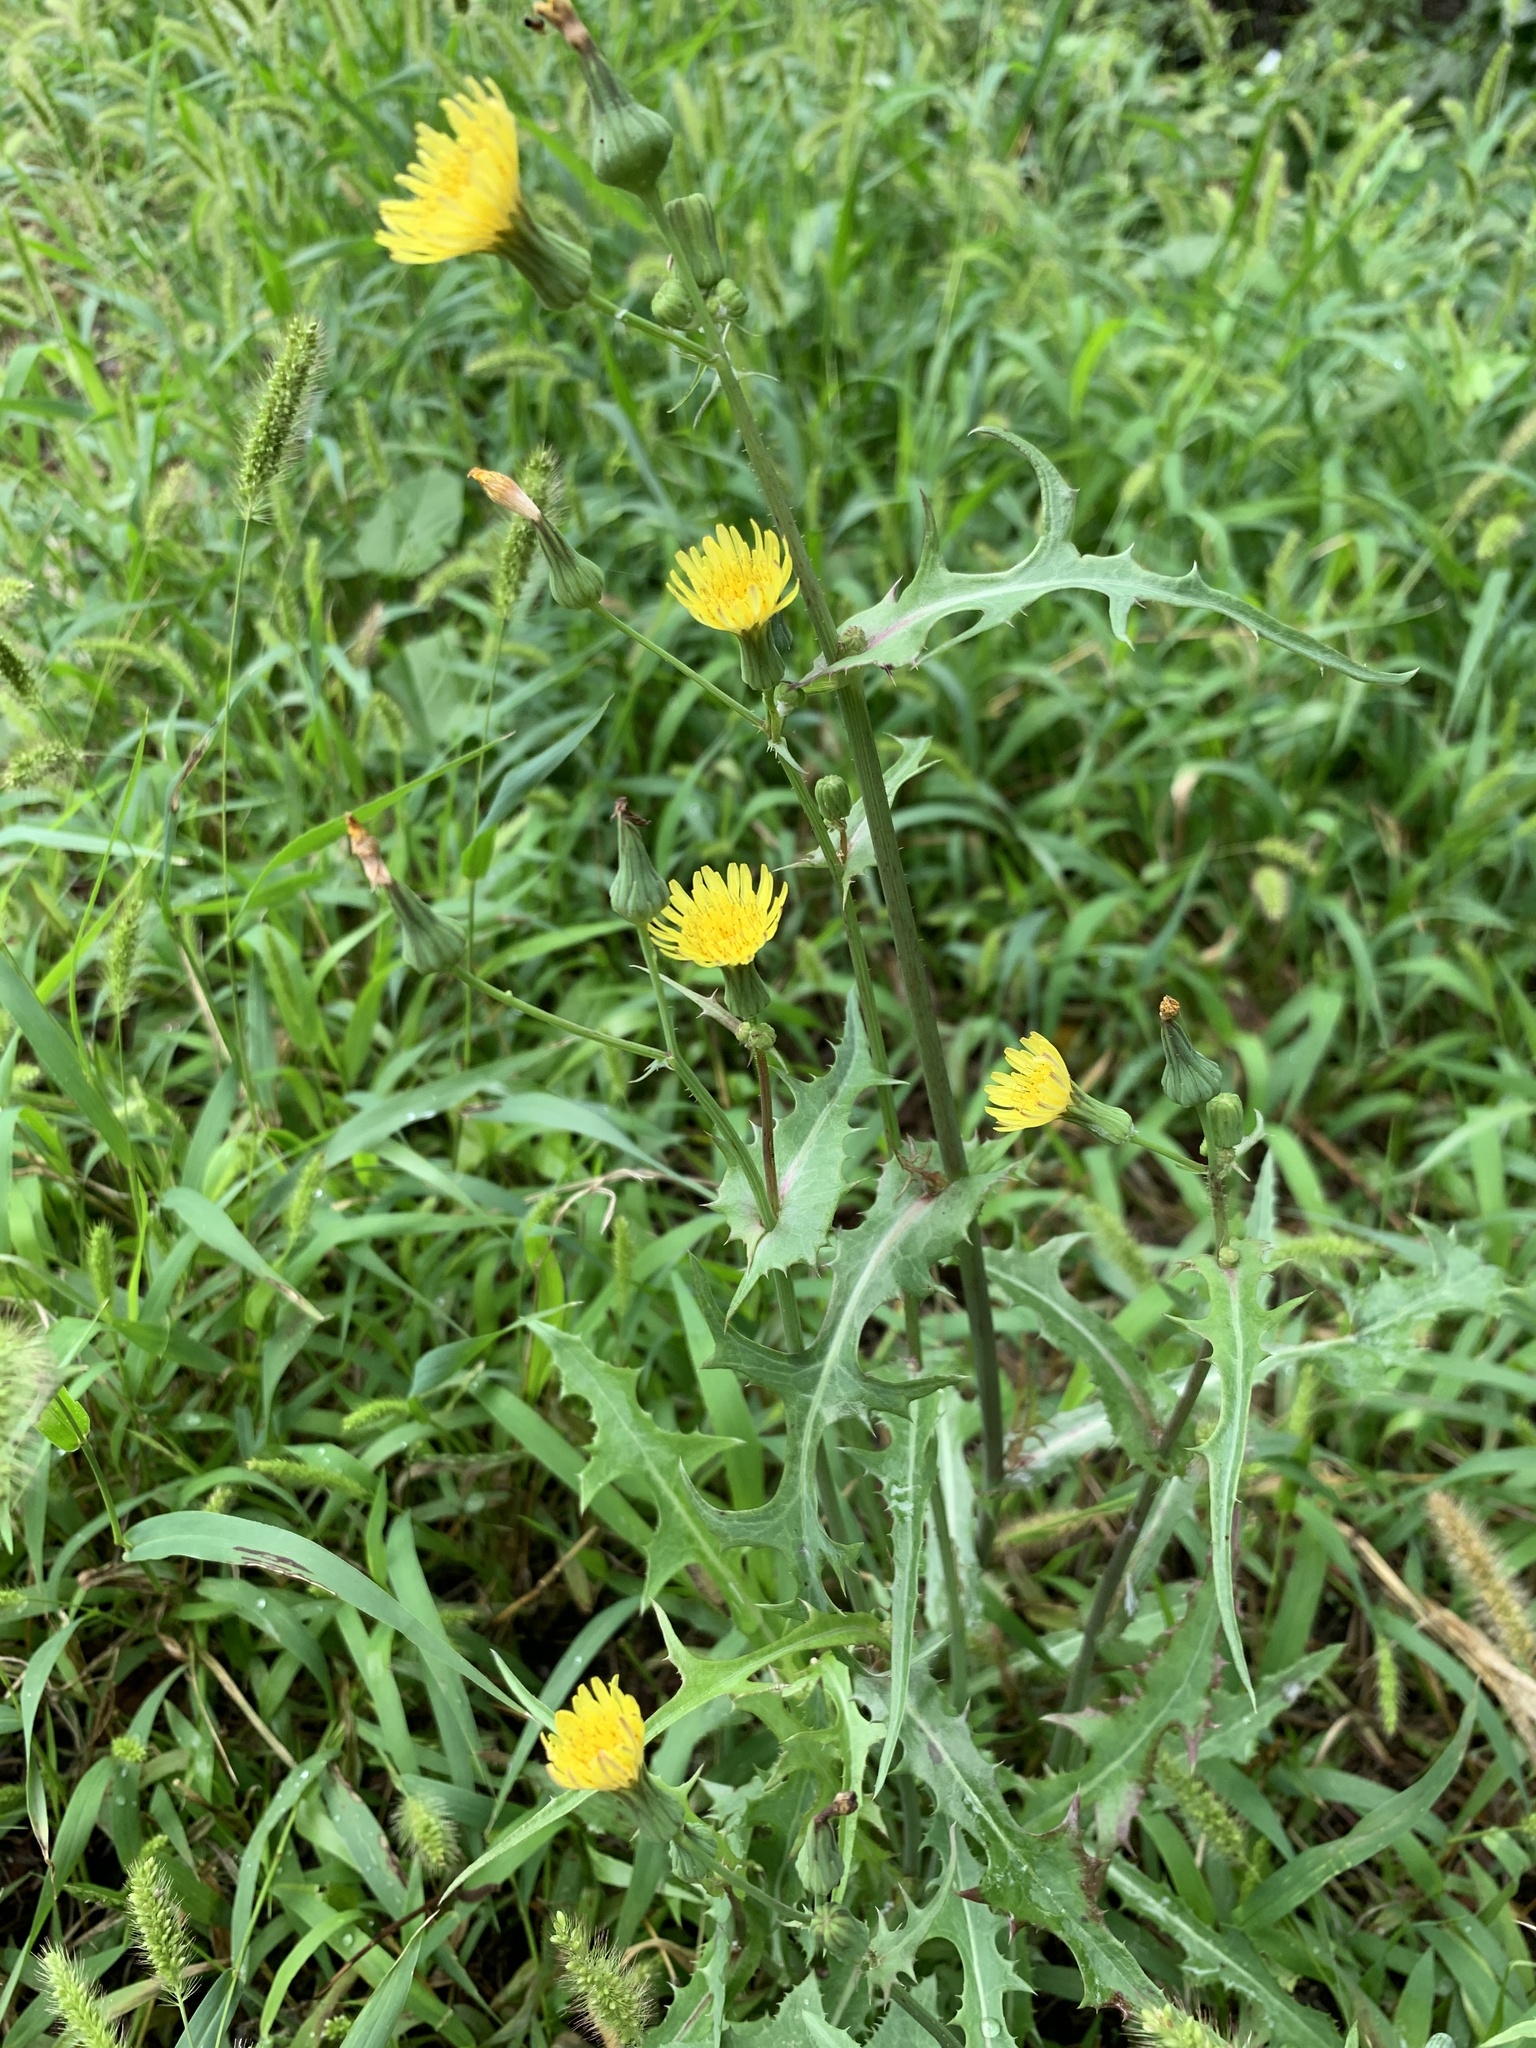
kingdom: Plantae
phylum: Tracheophyta
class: Magnoliopsida
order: Asterales
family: Asteraceae
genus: Sonchus
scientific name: Sonchus oleraceus
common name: Common sowthistle
